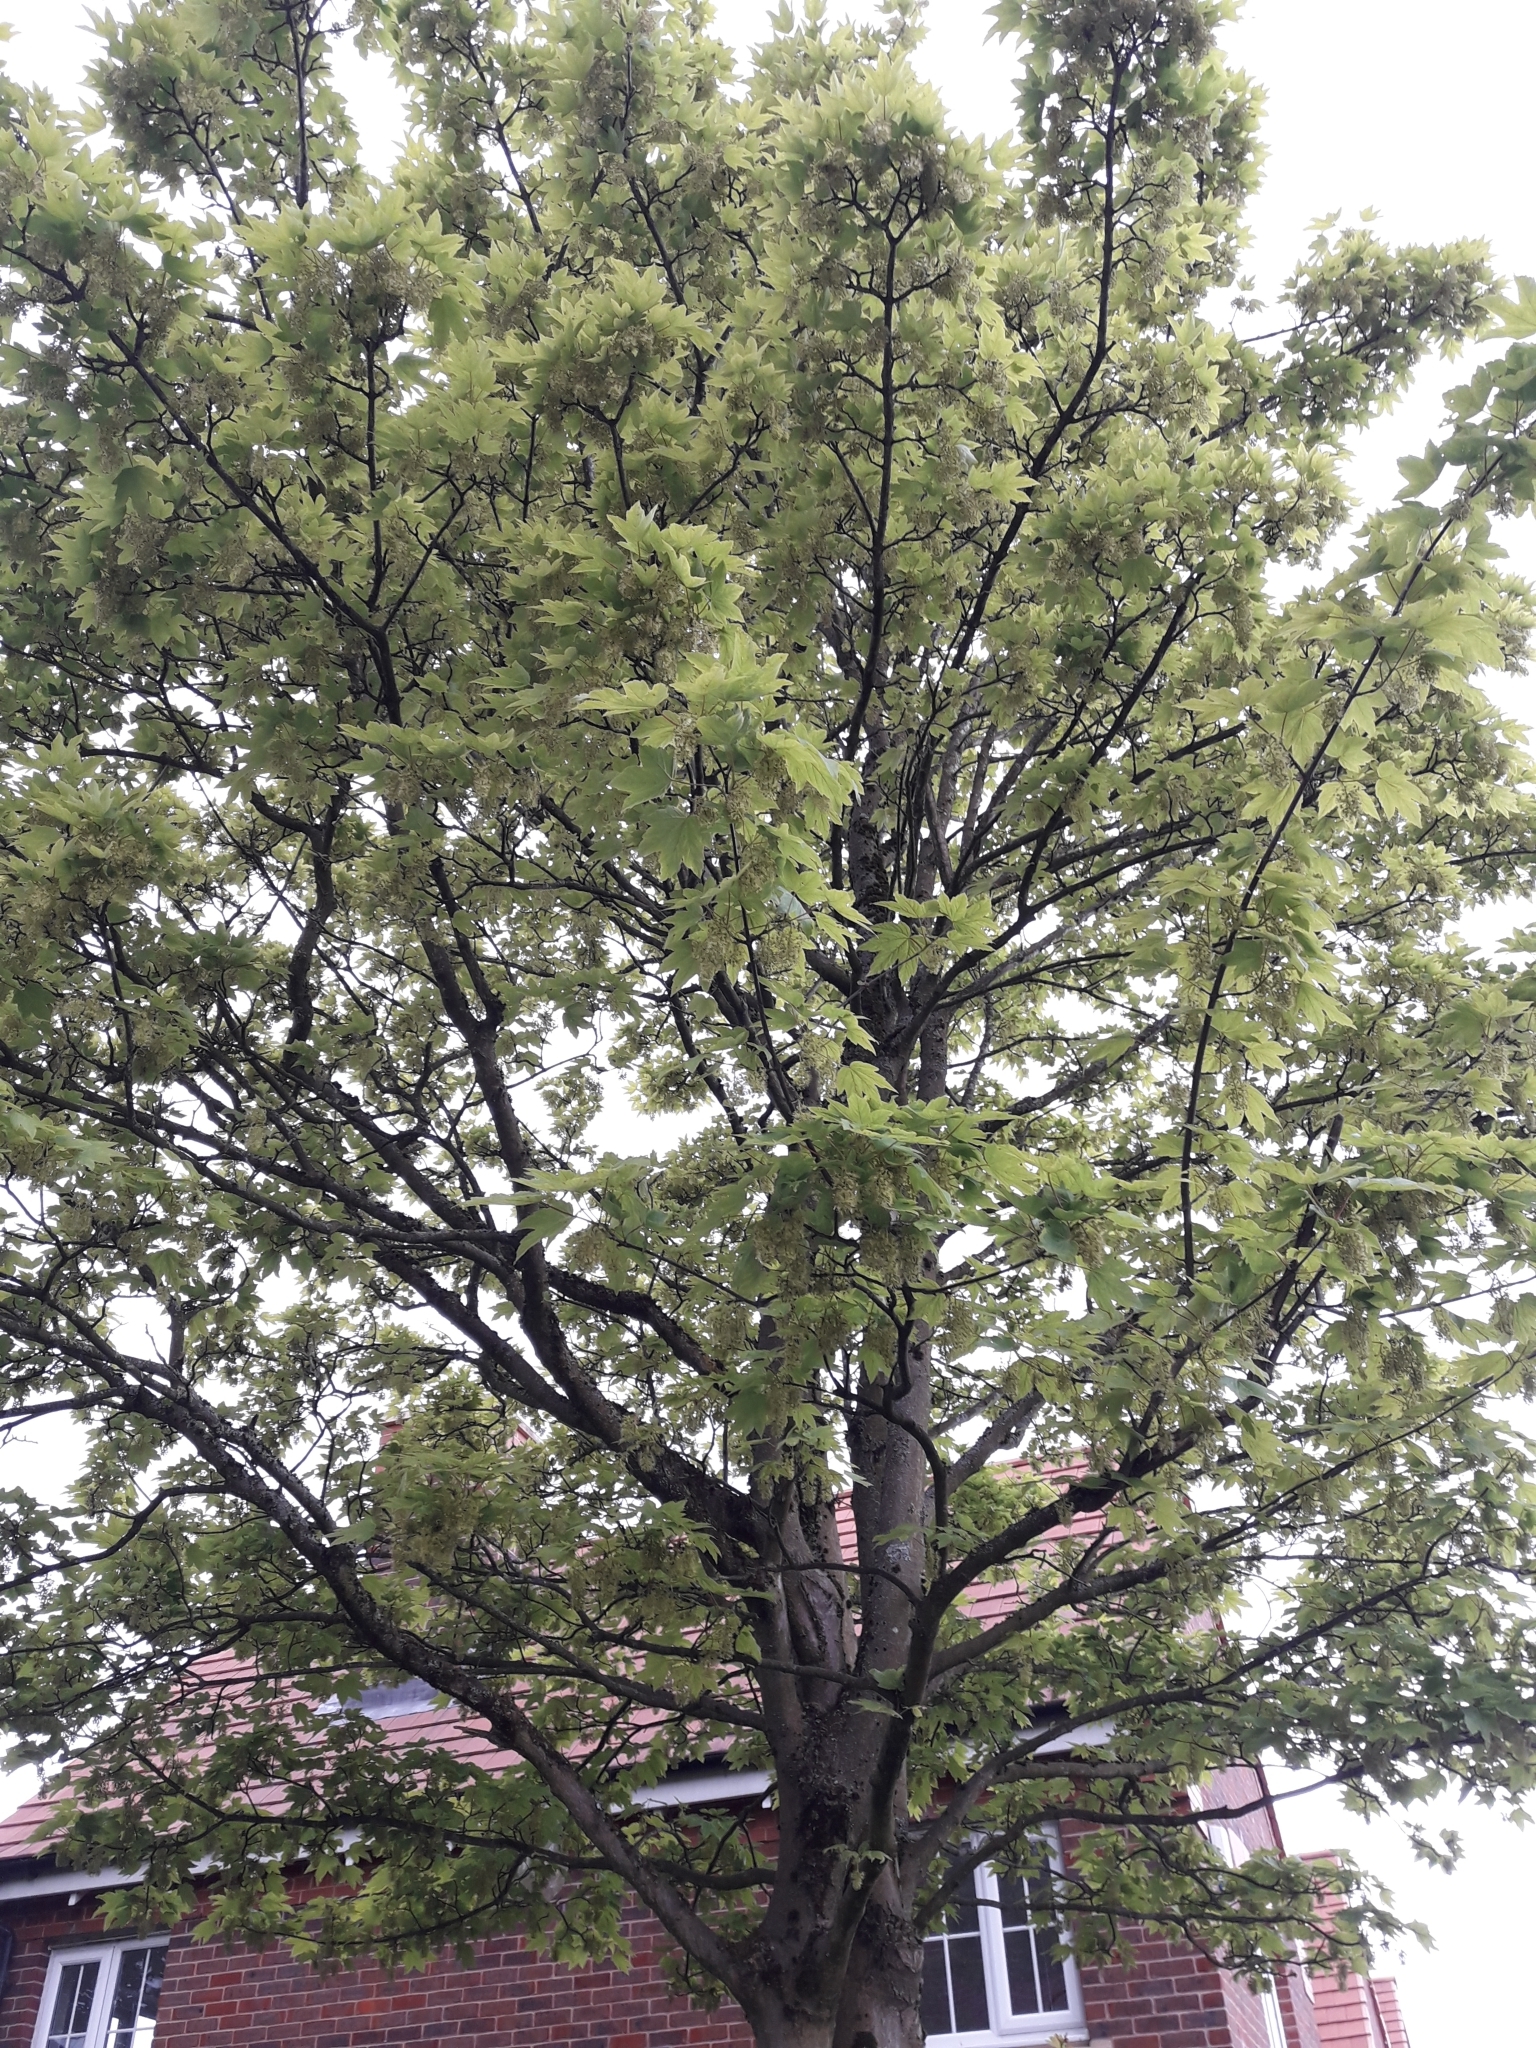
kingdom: Plantae
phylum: Tracheophyta
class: Magnoliopsida
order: Sapindales
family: Sapindaceae
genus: Acer
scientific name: Acer pseudoplatanus
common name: Sycamore
